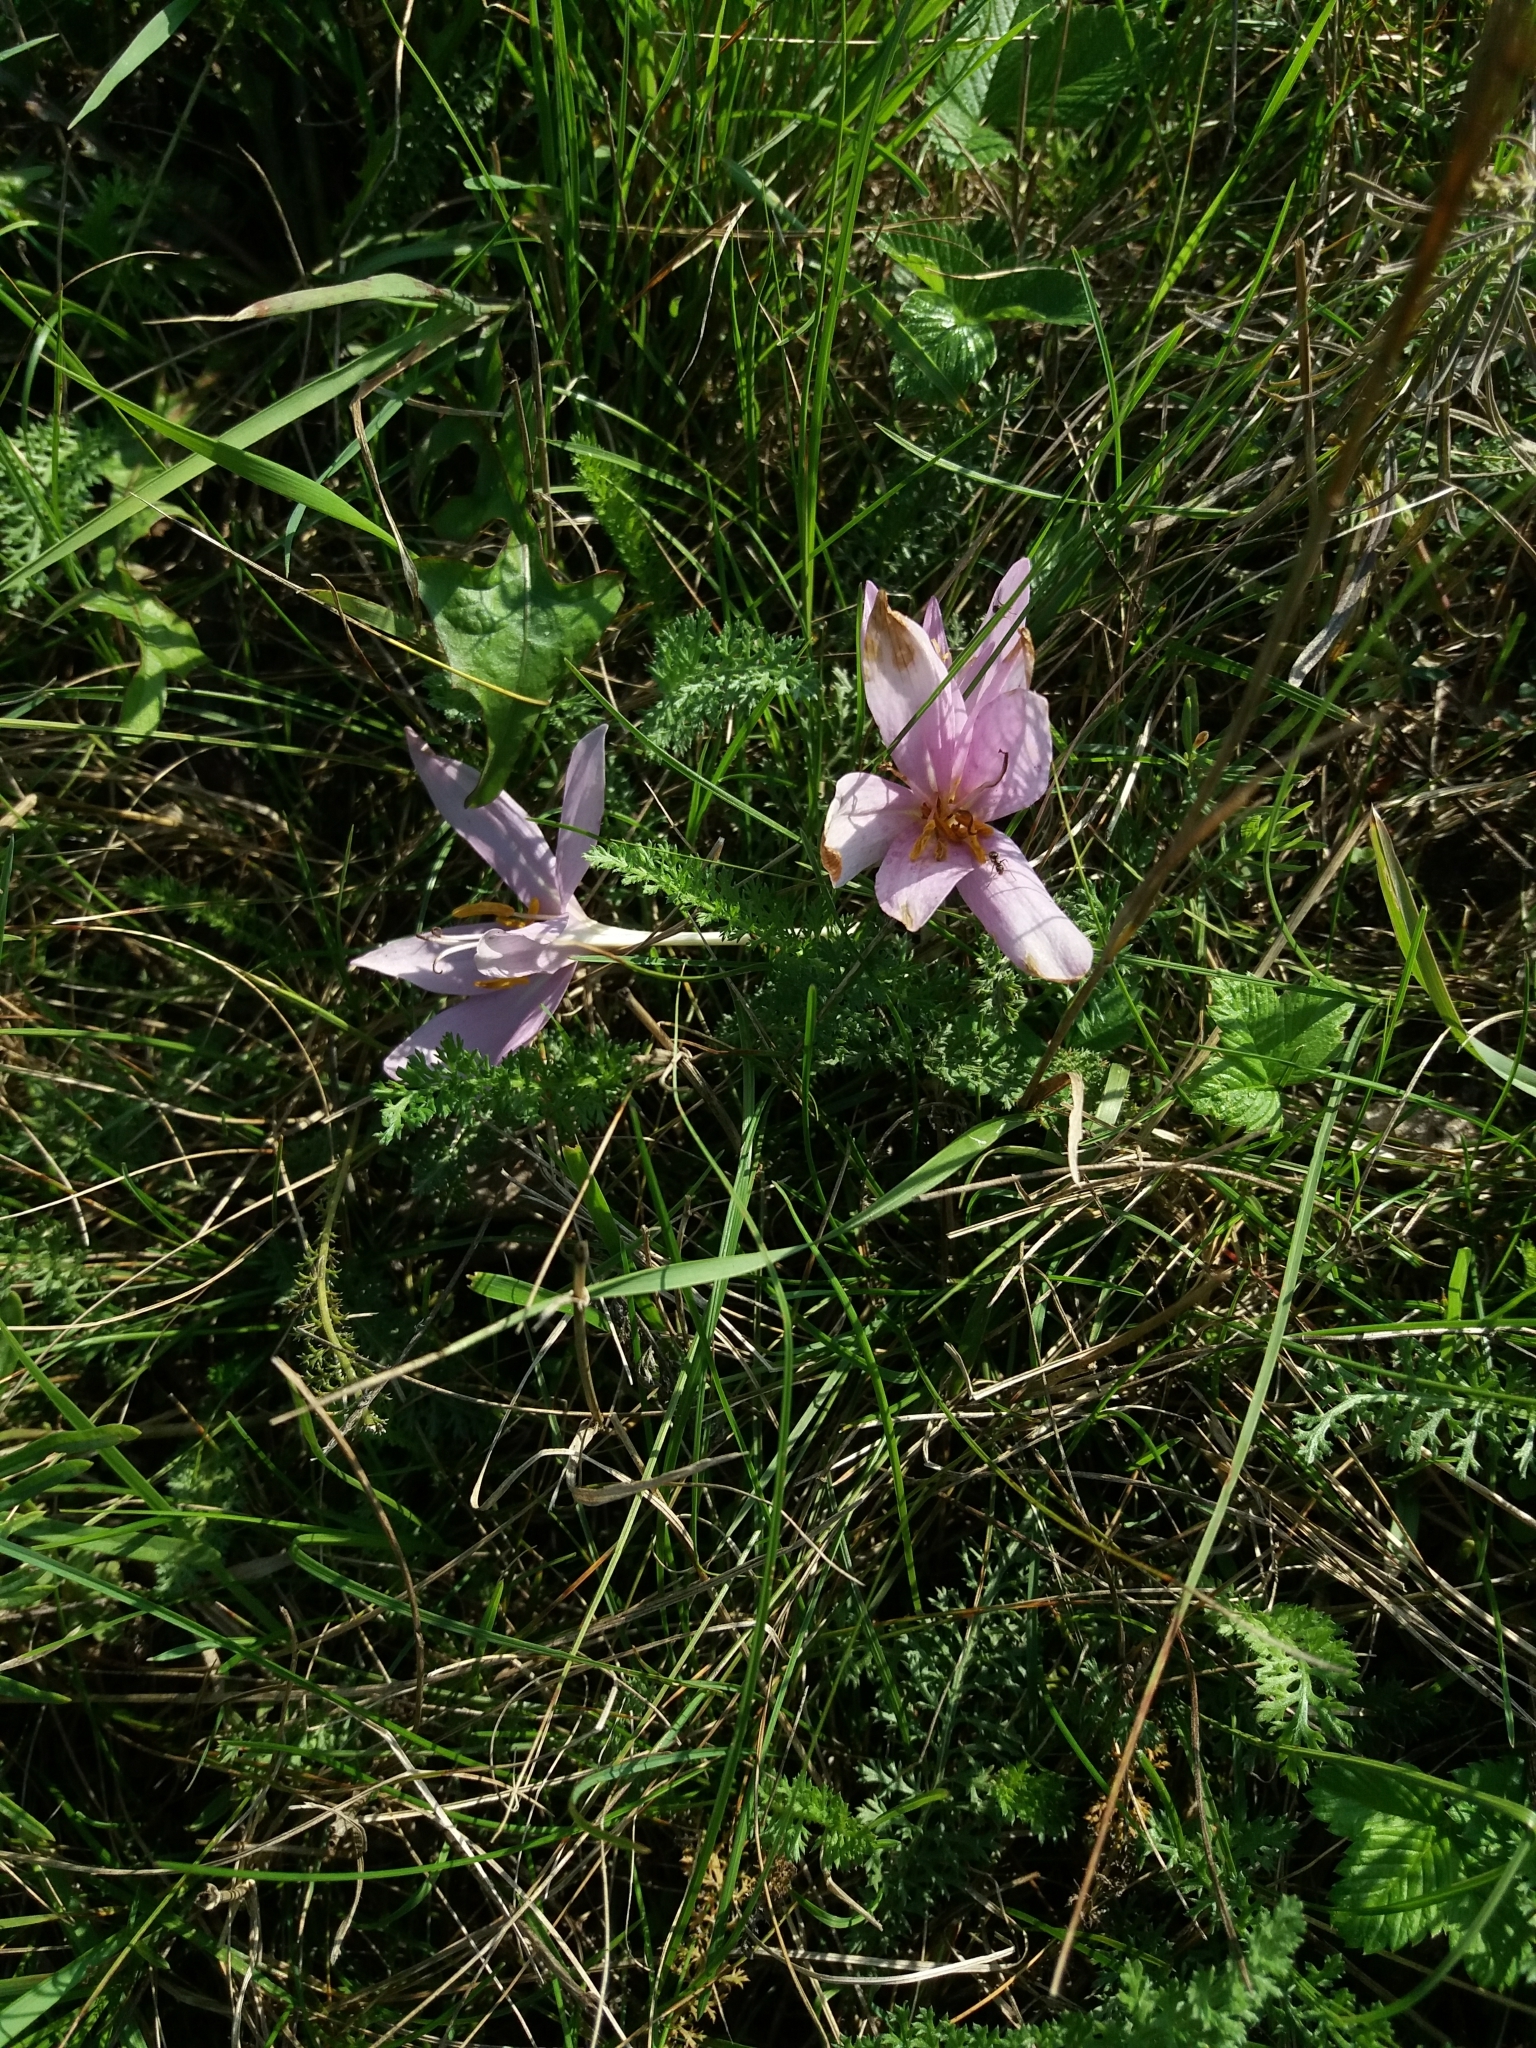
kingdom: Plantae
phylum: Tracheophyta
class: Liliopsida
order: Liliales
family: Colchicaceae
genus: Colchicum
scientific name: Colchicum autumnale
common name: Autumn crocus
